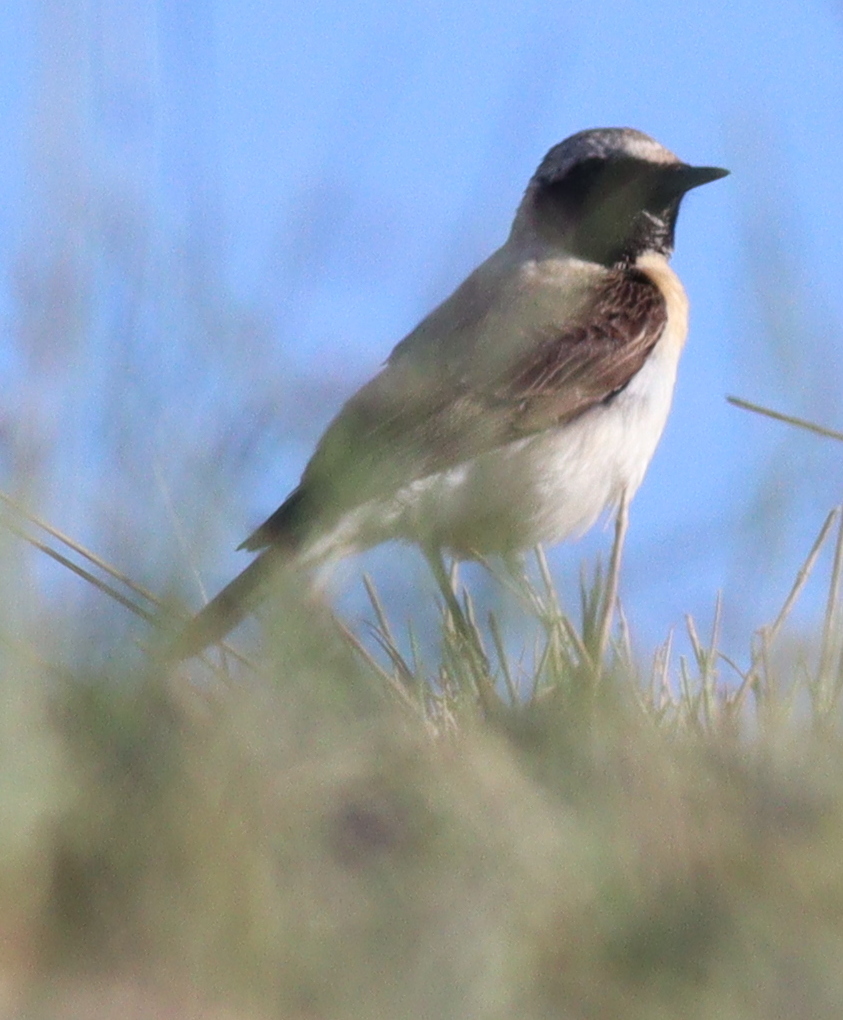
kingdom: Animalia
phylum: Chordata
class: Aves
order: Passeriformes
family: Muscicapidae
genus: Oenanthe
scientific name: Oenanthe hispanica
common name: Black-eared wheatear
